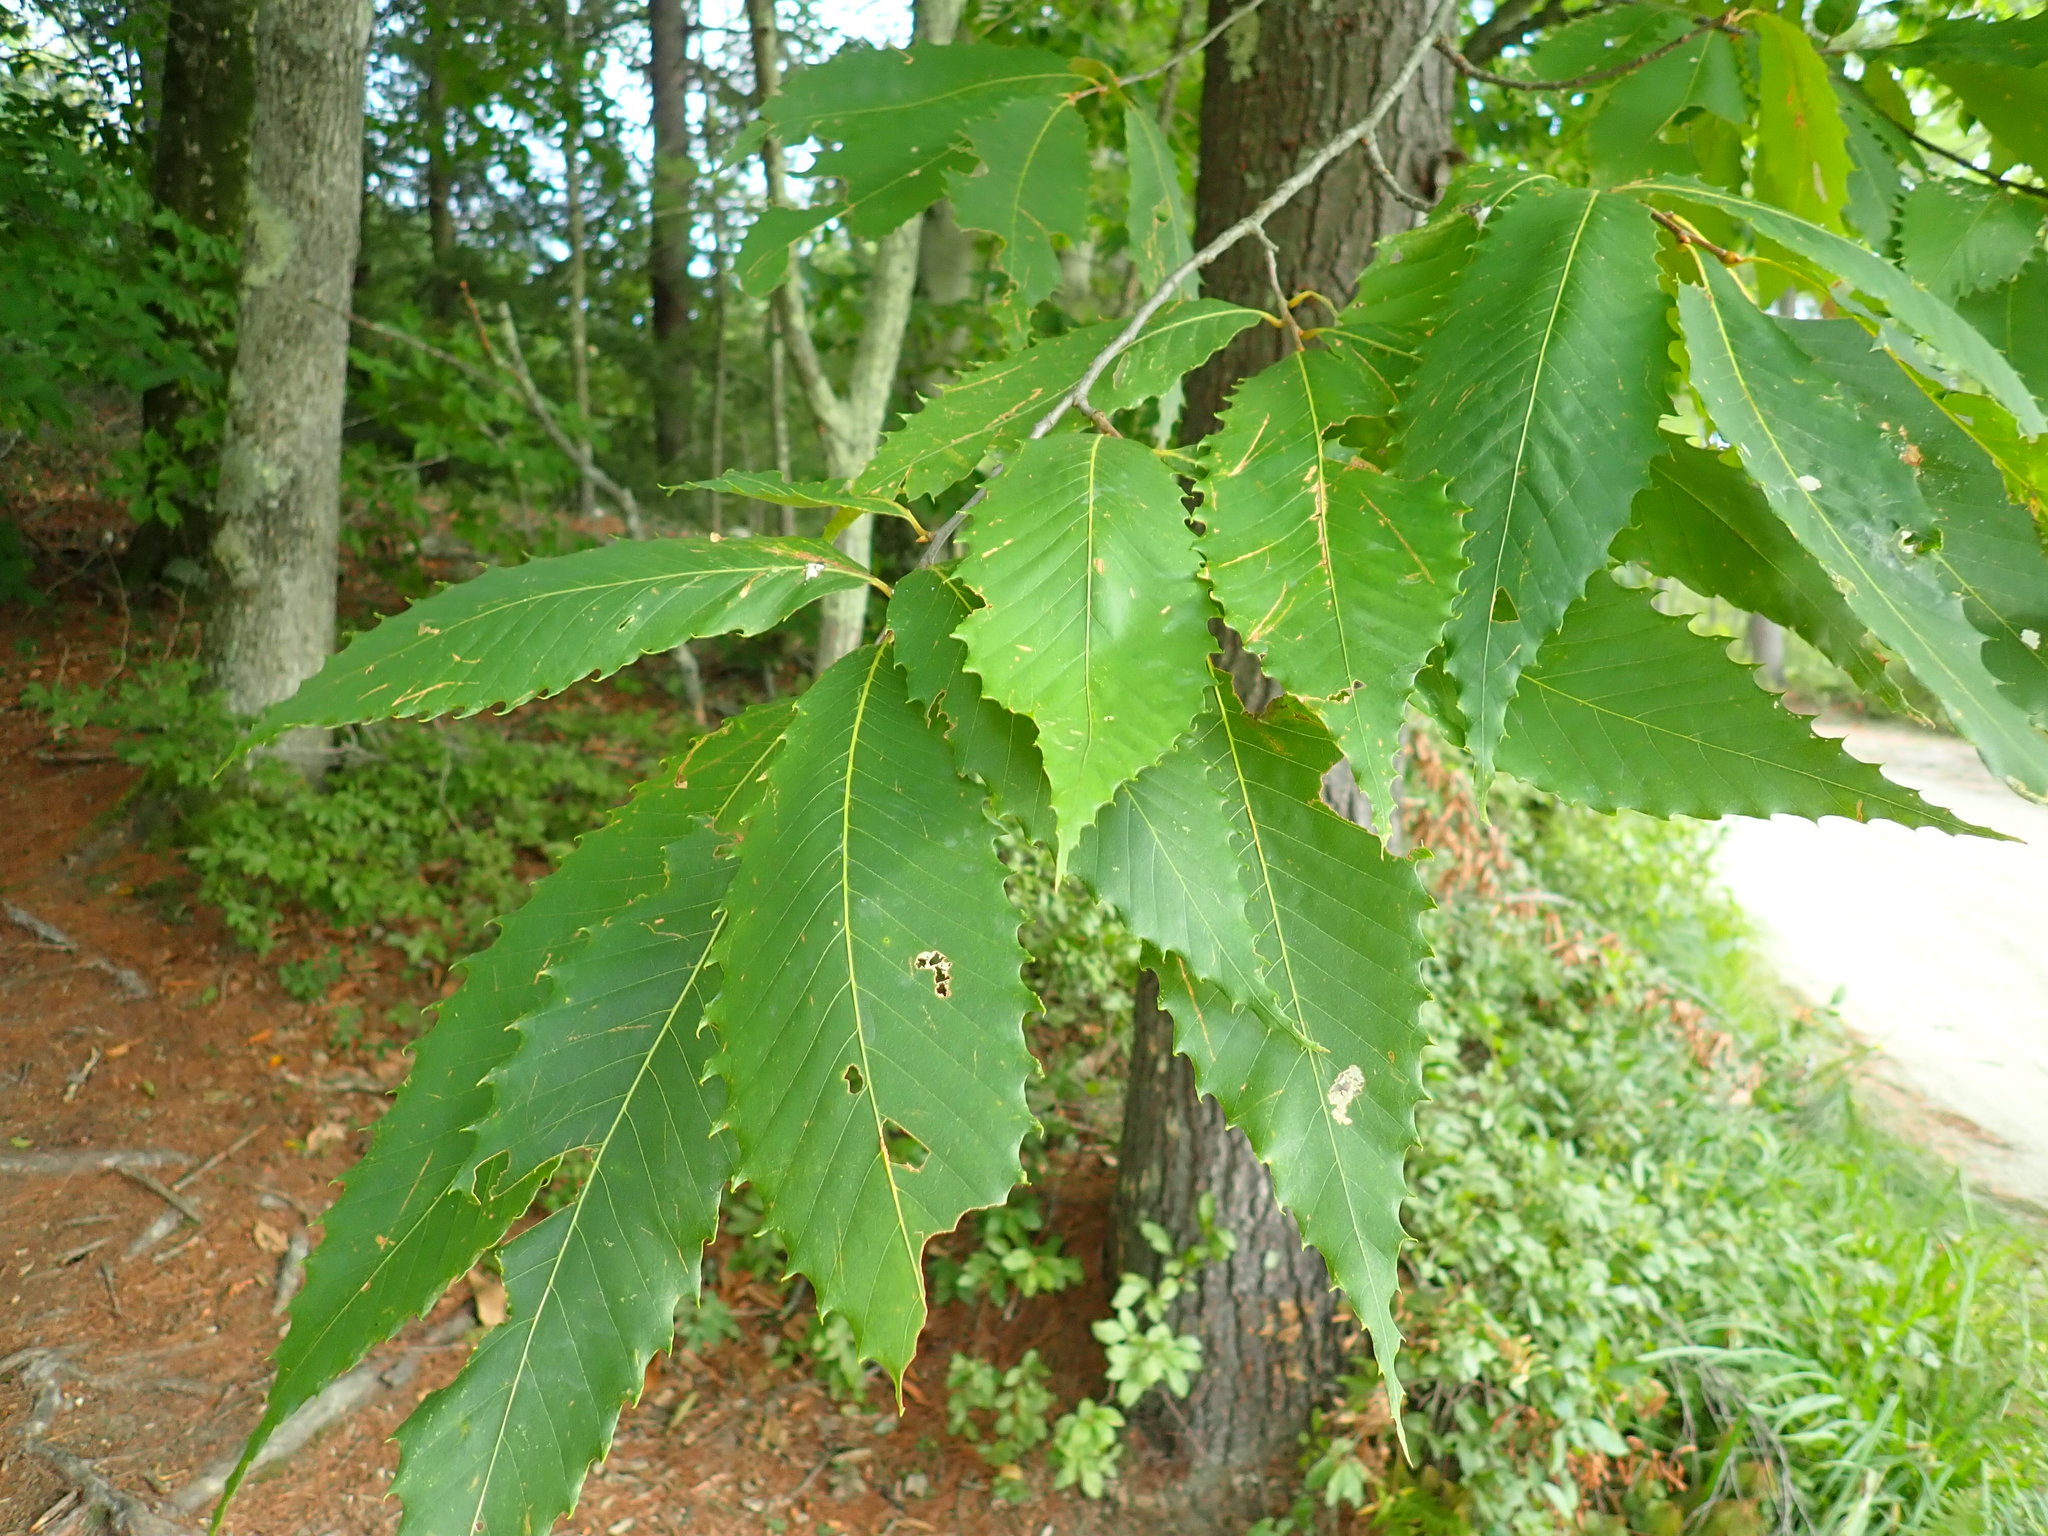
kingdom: Plantae
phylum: Tracheophyta
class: Magnoliopsida
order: Fagales
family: Fagaceae
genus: Castanea
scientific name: Castanea dentata
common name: American chestnut
